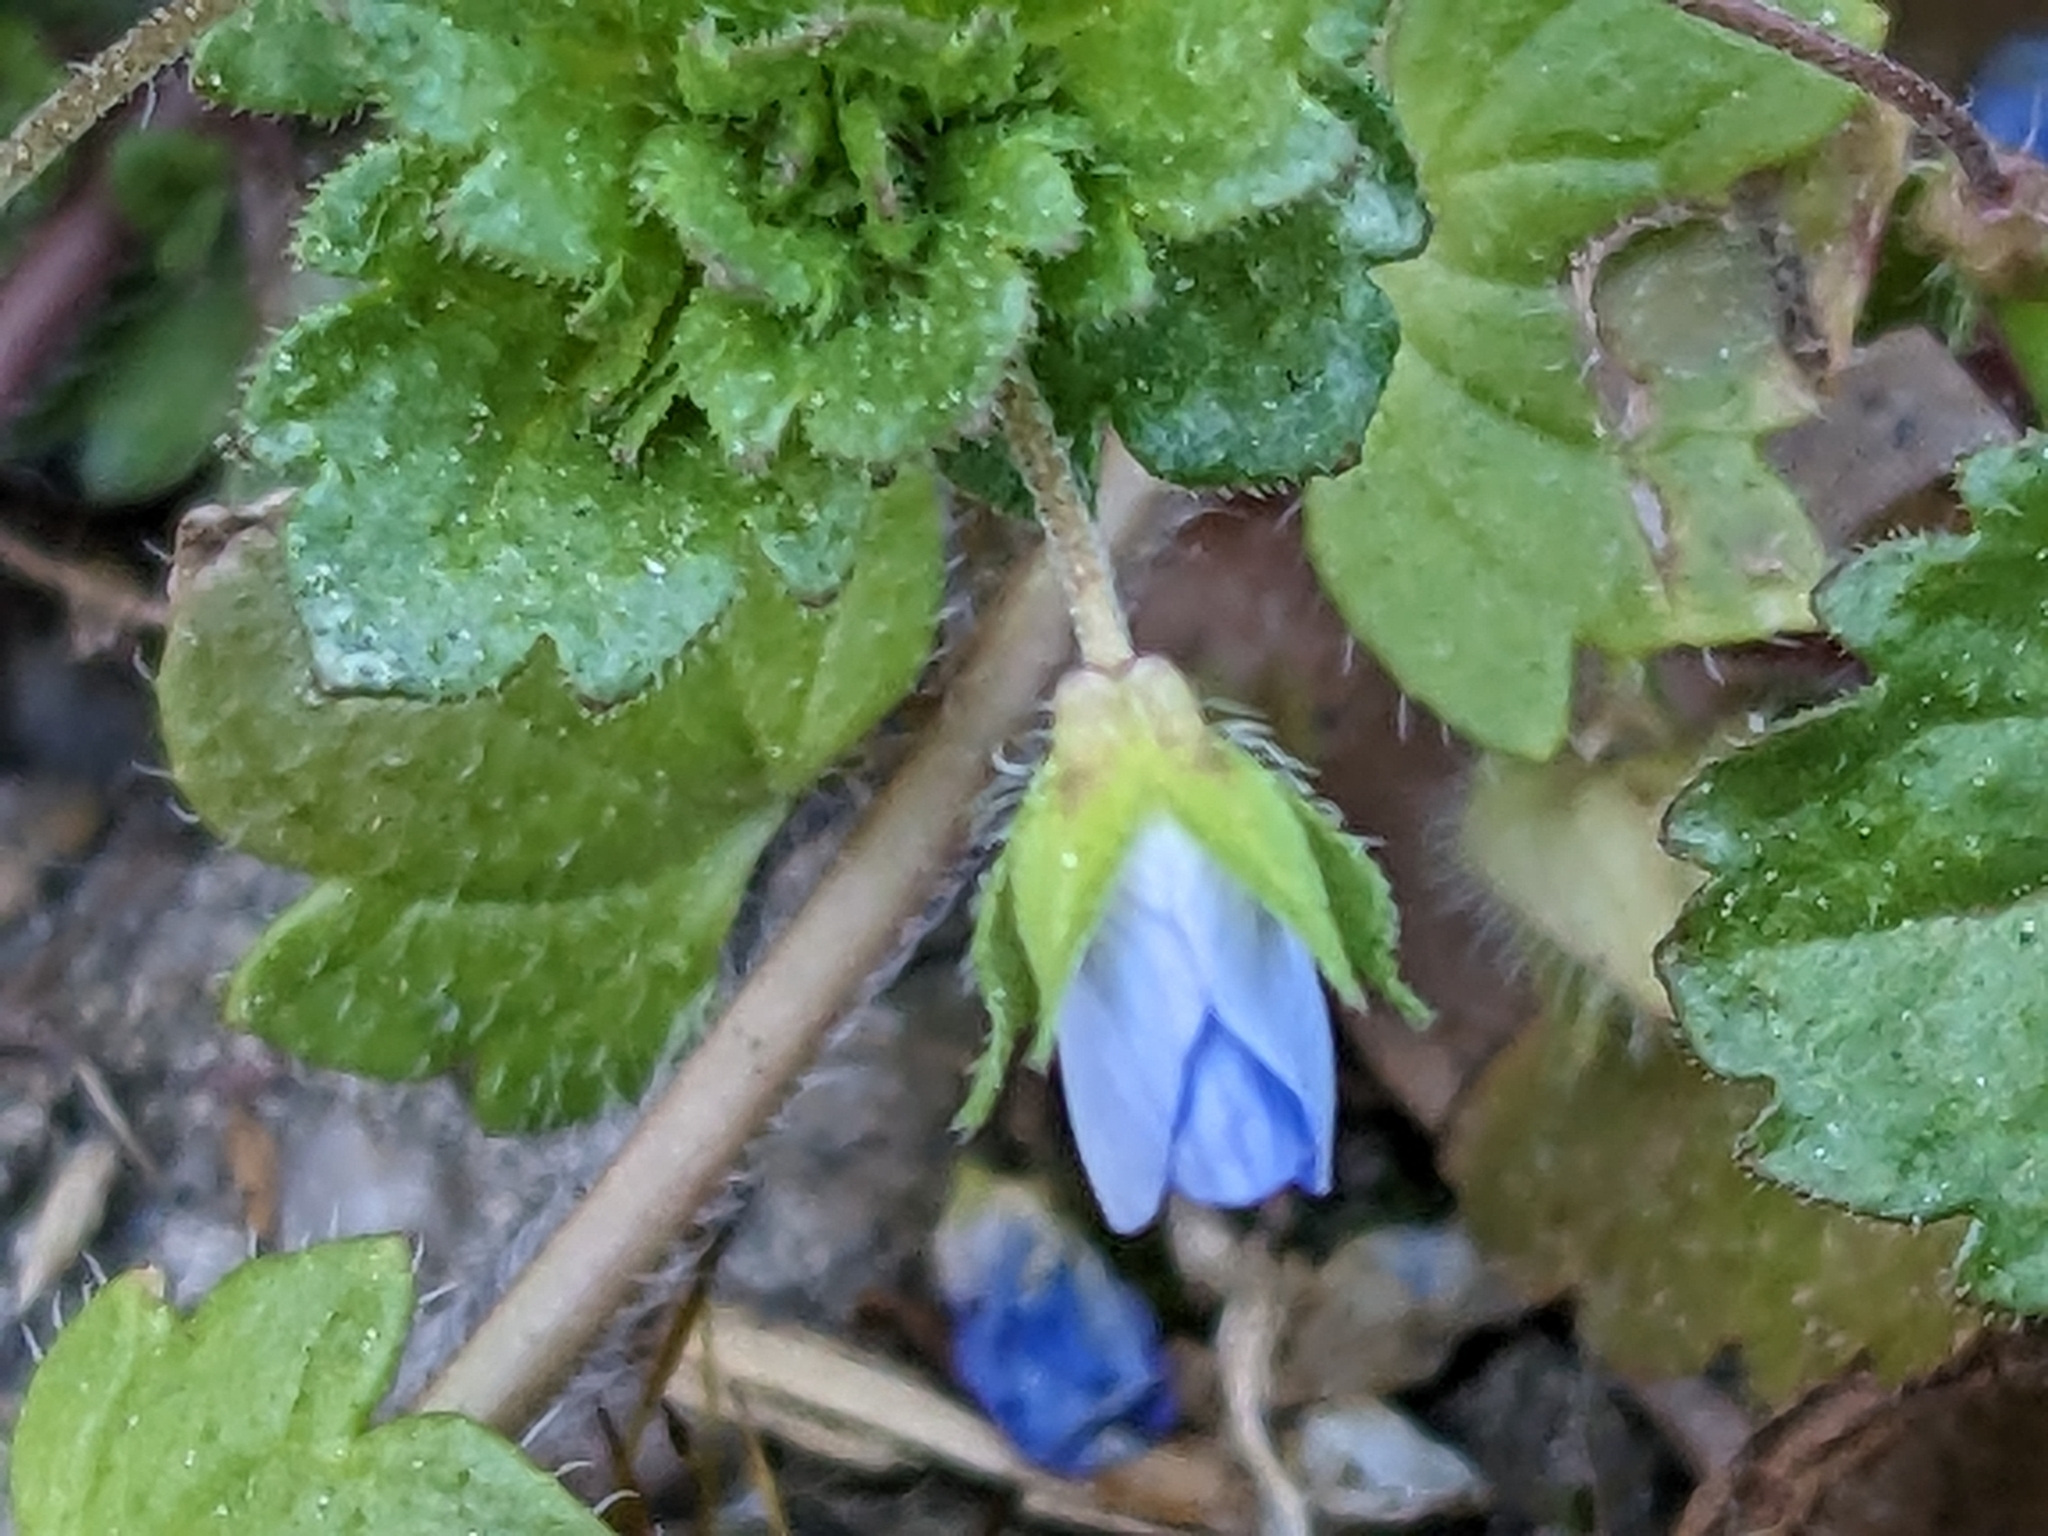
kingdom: Plantae
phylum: Tracheophyta
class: Magnoliopsida
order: Lamiales
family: Plantaginaceae
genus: Veronica
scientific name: Veronica persica
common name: Common field-speedwell
